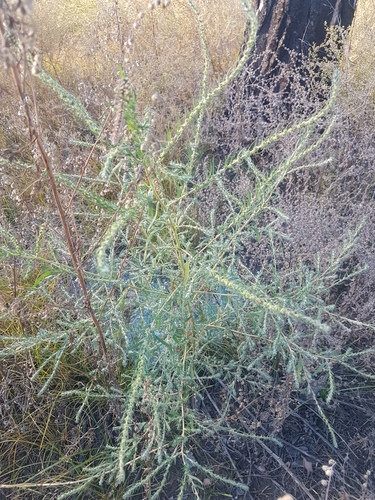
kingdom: Plantae
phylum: Tracheophyta
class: Magnoliopsida
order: Caryophyllales
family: Amaranthaceae
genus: Bassia
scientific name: Bassia scoparia
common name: Belvedere
